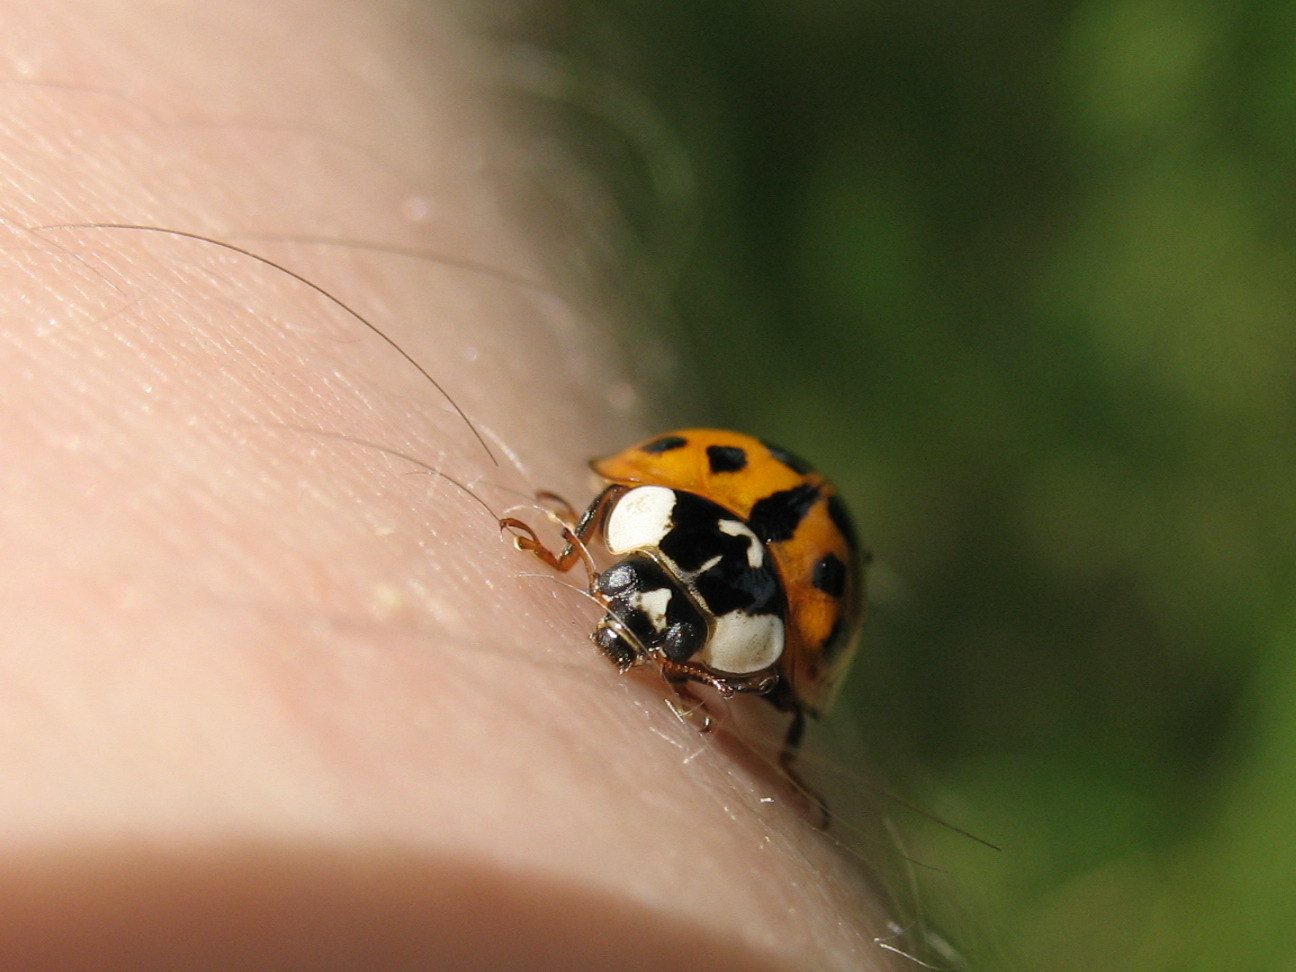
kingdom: Animalia
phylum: Arthropoda
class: Insecta
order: Coleoptera
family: Coccinellidae
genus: Harmonia
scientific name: Harmonia axyridis
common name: Harlequin ladybird
